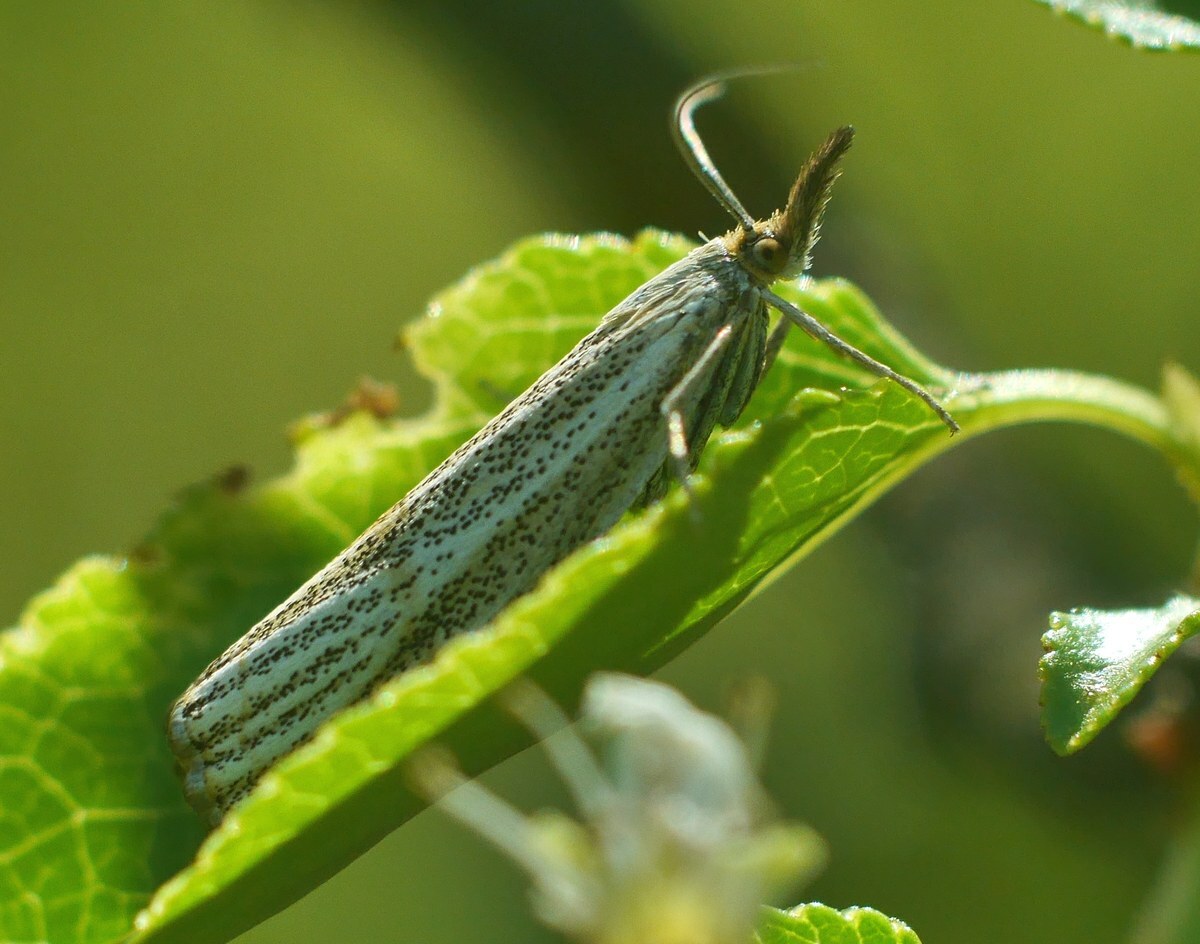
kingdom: Animalia
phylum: Arthropoda
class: Insecta
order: Lepidoptera
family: Crambidae
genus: Thisanotia
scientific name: Thisanotia chrysonuchella
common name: Powdered grass-veneer
